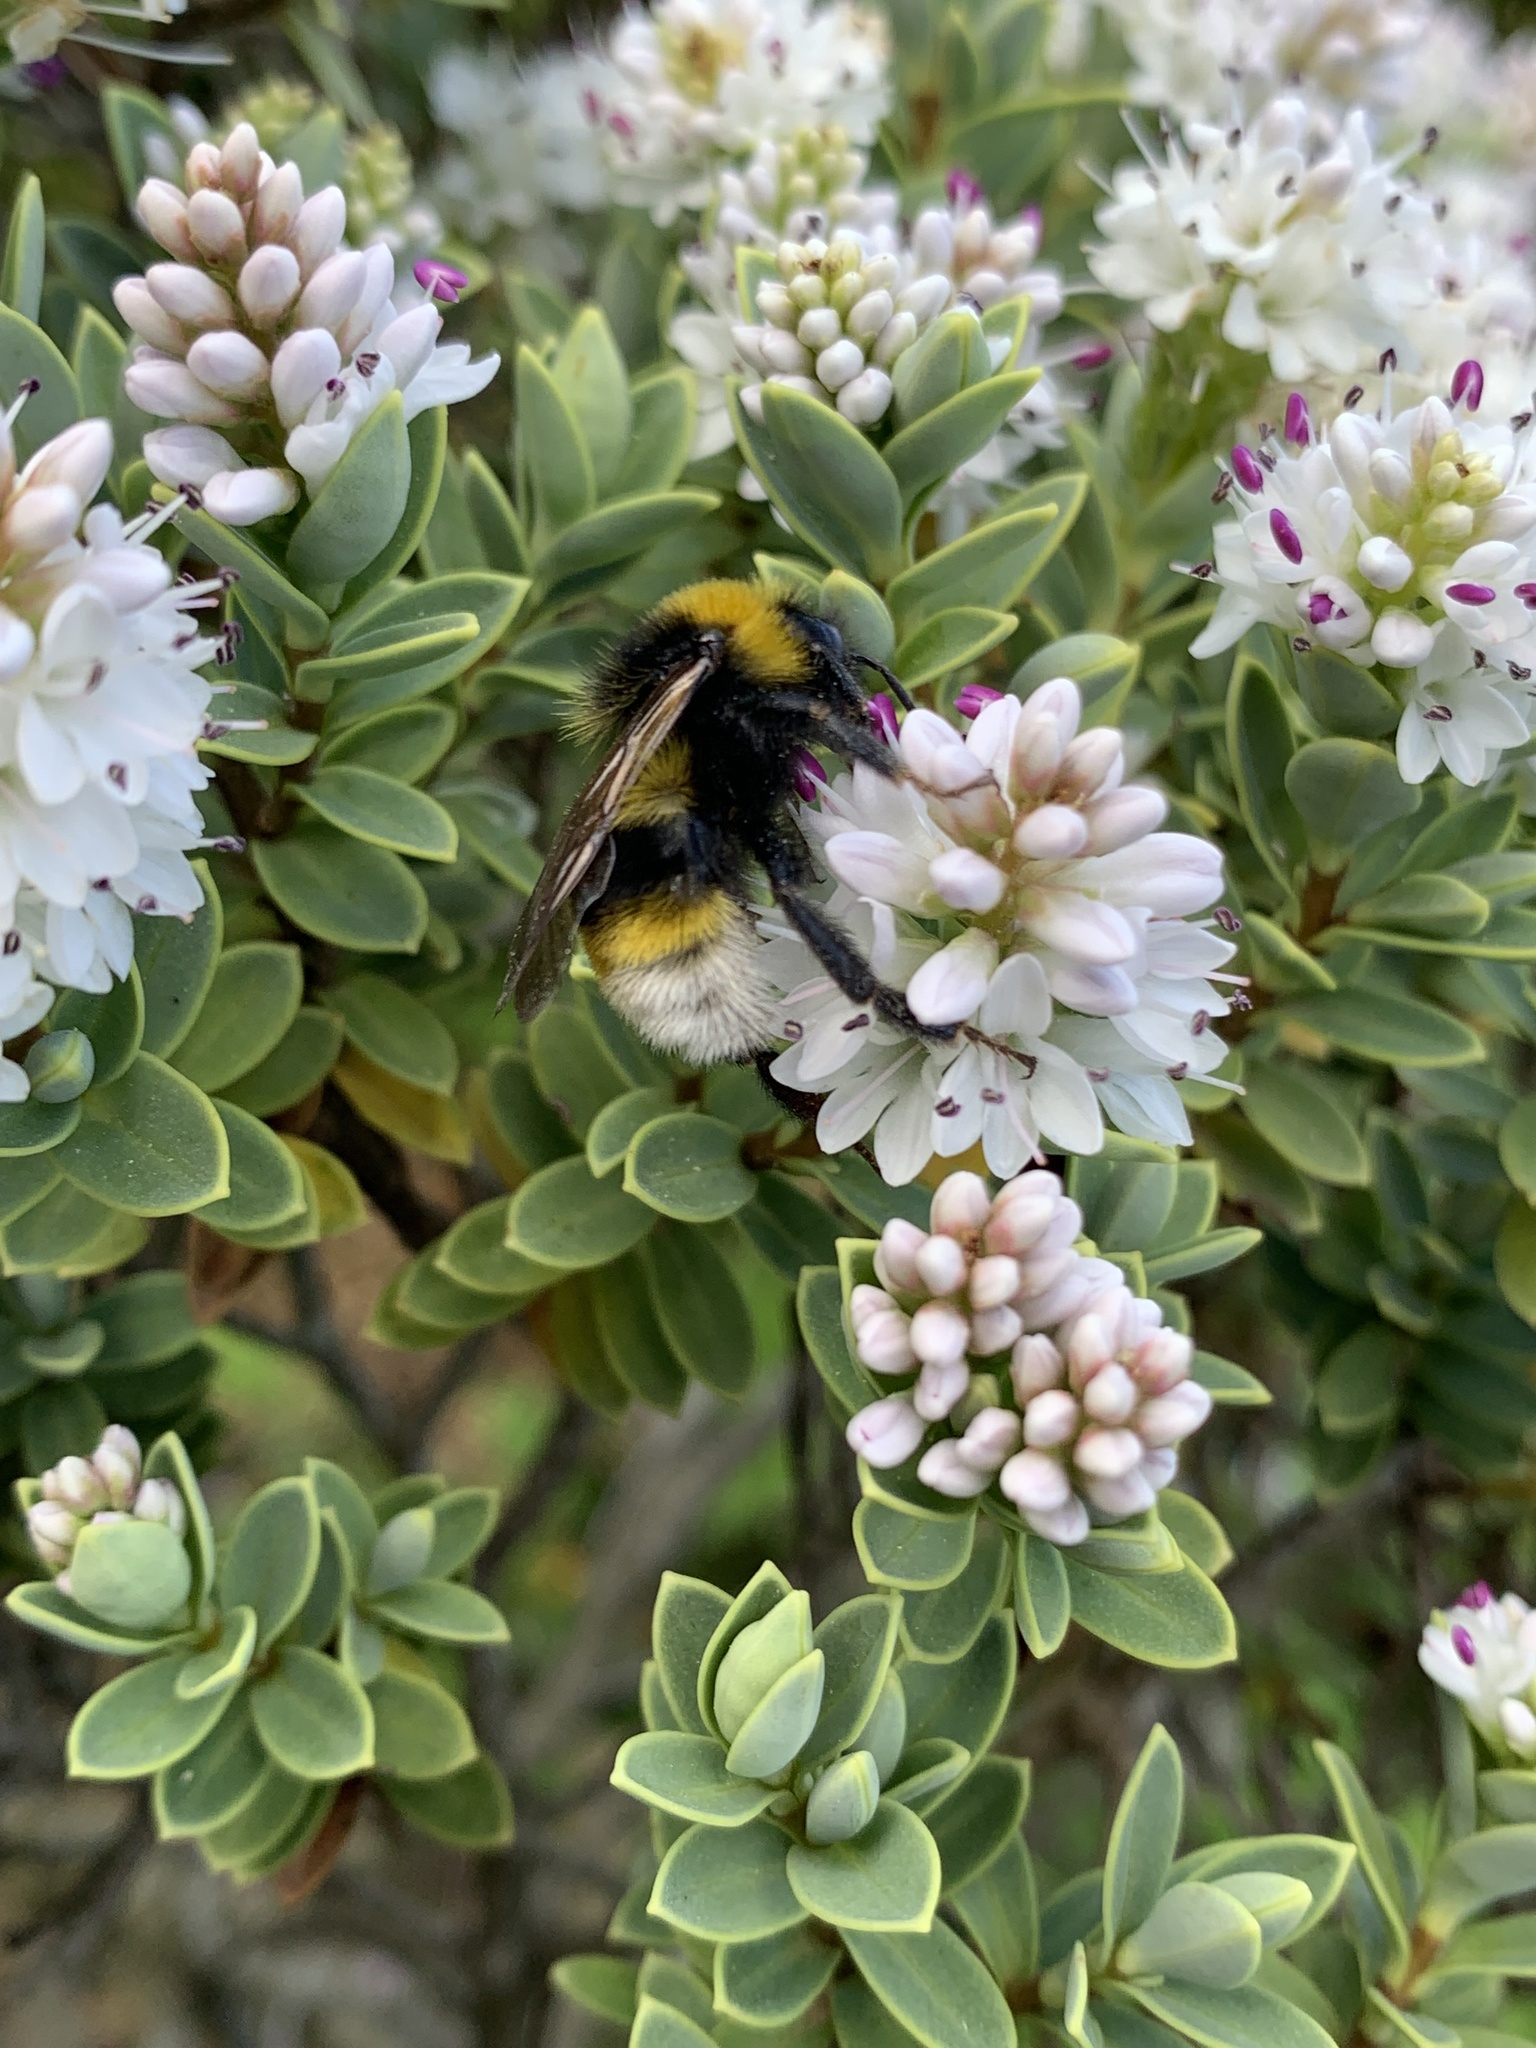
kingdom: Animalia
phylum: Arthropoda
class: Insecta
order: Hymenoptera
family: Apidae
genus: Bombus
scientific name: Bombus vestalis
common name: Vestal cuckoo bee
